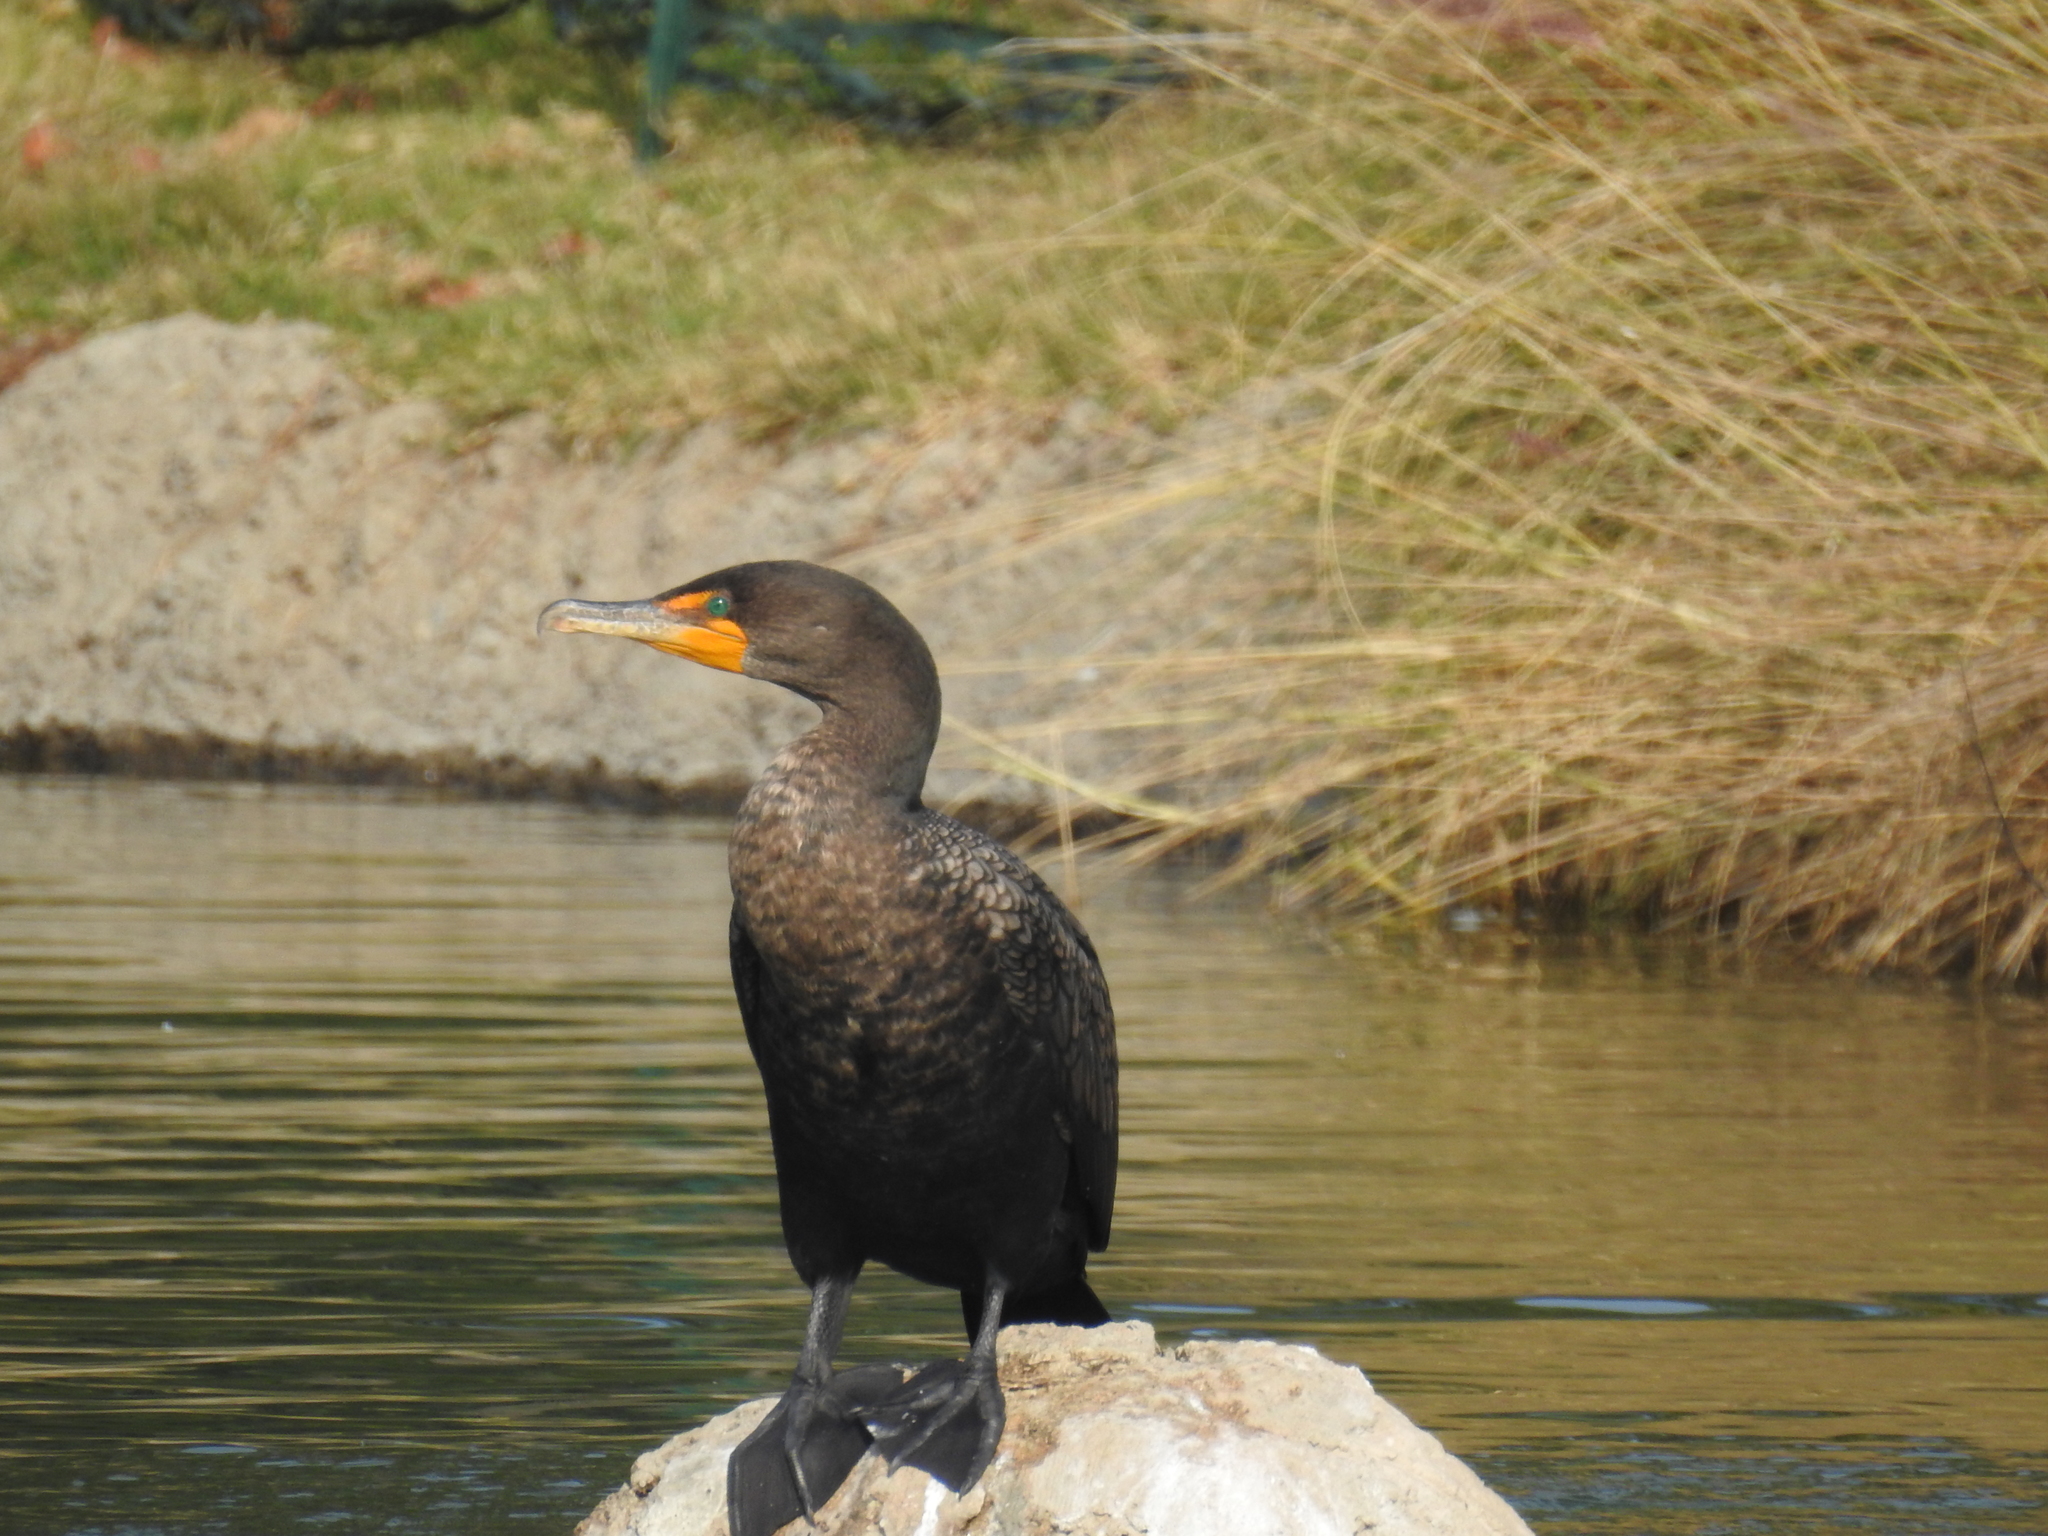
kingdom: Animalia
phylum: Chordata
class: Aves
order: Suliformes
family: Phalacrocoracidae
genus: Phalacrocorax
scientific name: Phalacrocorax auritus
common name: Double-crested cormorant
